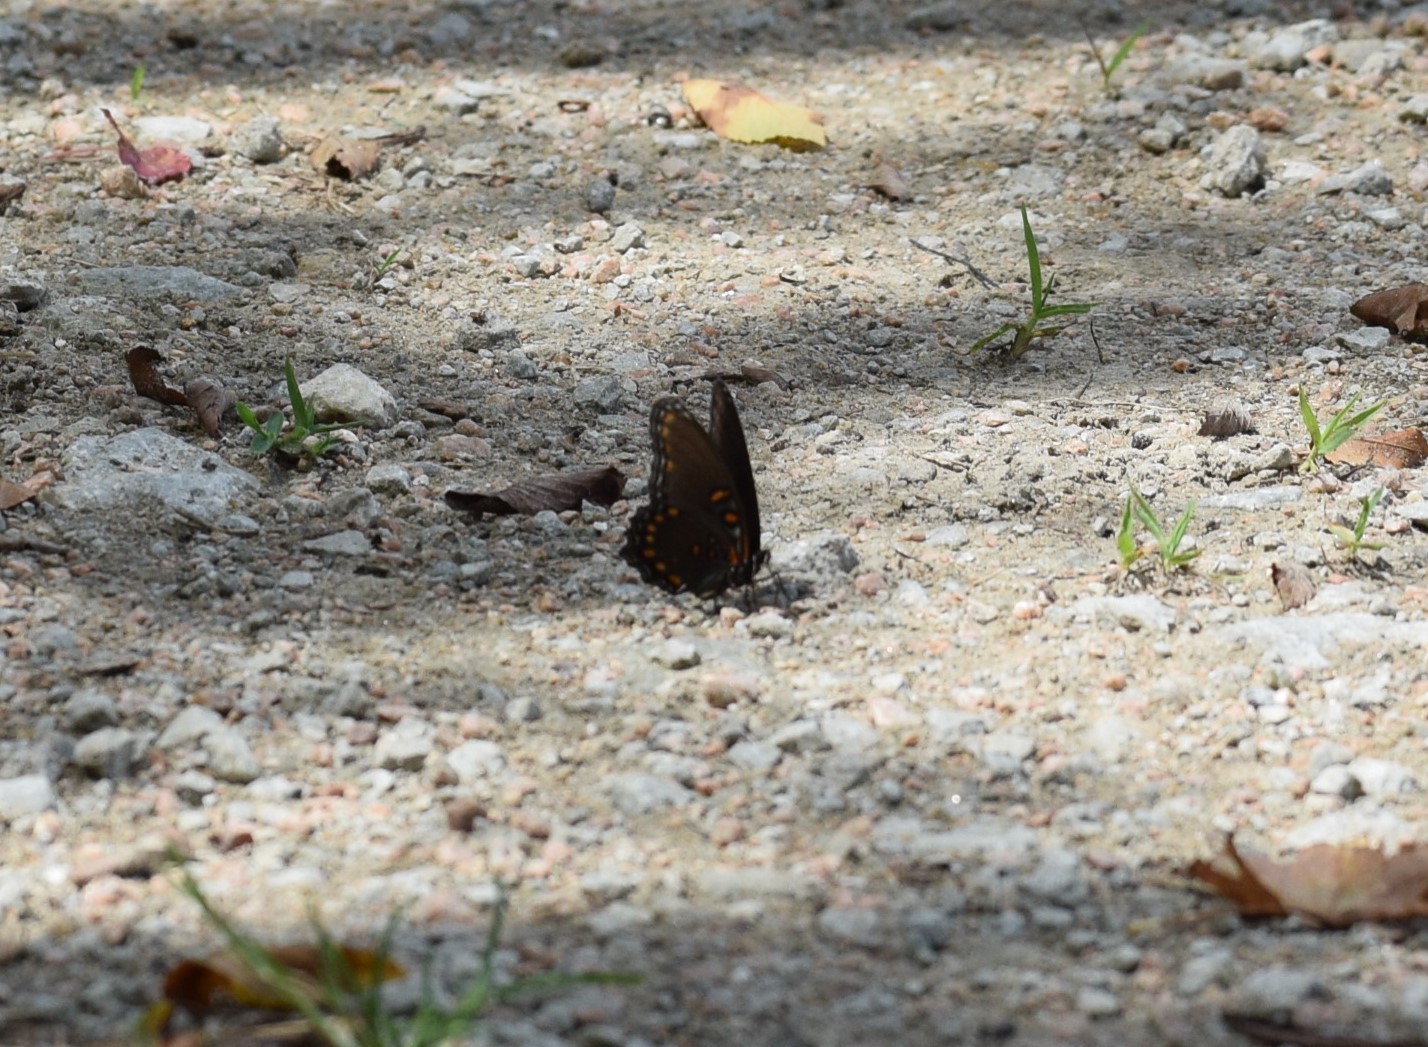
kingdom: Animalia
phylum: Arthropoda
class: Insecta
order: Lepidoptera
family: Nymphalidae
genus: Limenitis
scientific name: Limenitis astyanax
